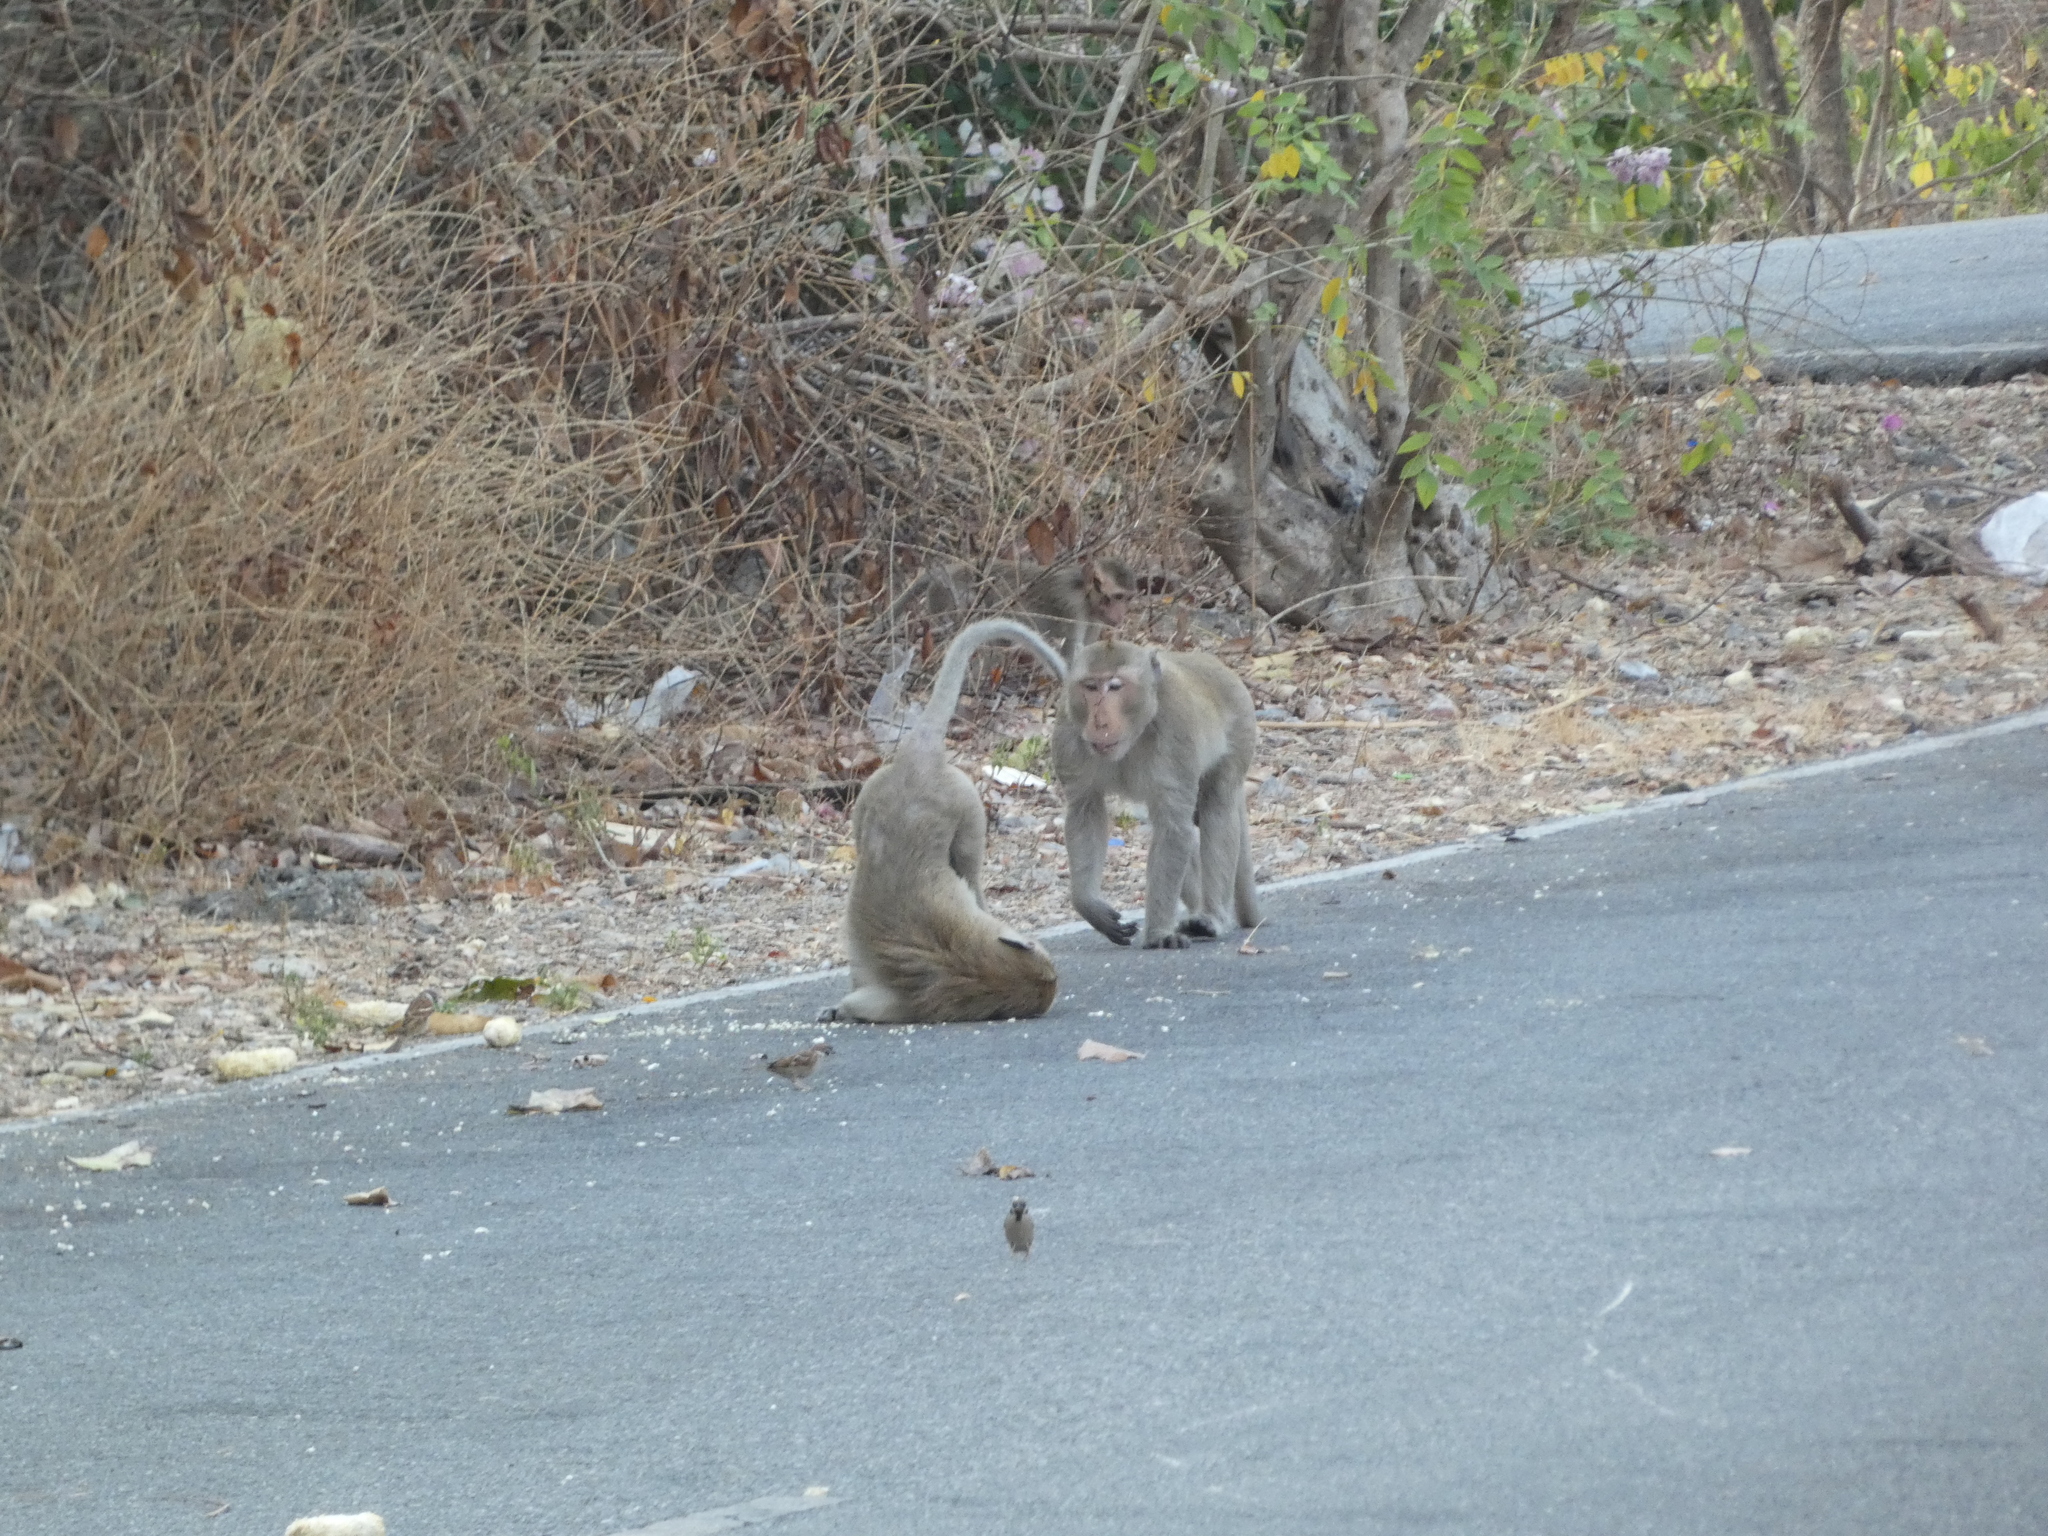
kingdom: Animalia
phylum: Chordata
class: Mammalia
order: Primates
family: Cercopithecidae
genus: Macaca
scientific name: Macaca fascicularis
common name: Crab-eating macaque
